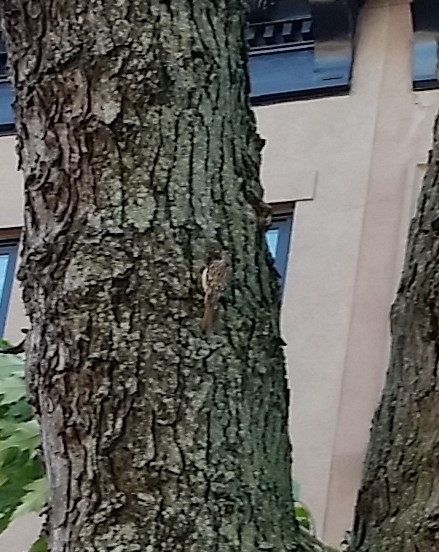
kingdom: Animalia
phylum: Chordata
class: Aves
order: Passeriformes
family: Certhiidae
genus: Certhia
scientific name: Certhia americana
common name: Brown creeper
